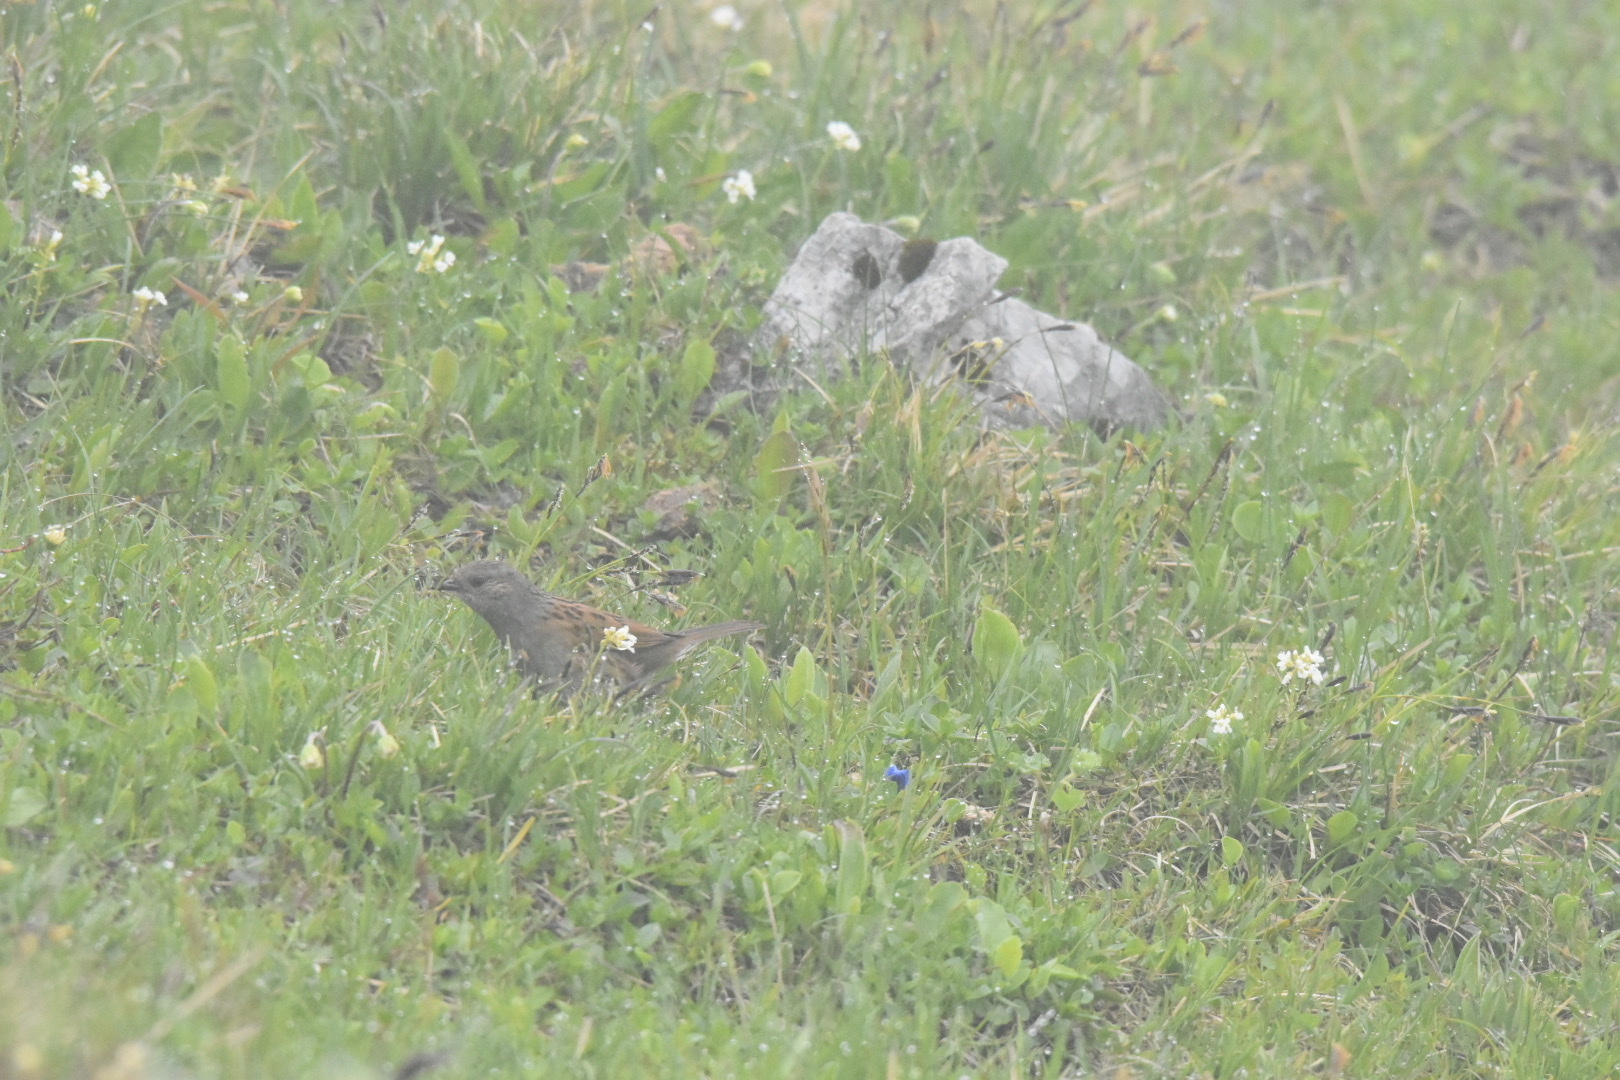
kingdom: Animalia
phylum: Chordata
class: Aves
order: Passeriformes
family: Prunellidae
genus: Prunella
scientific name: Prunella modularis
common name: Dunnock
